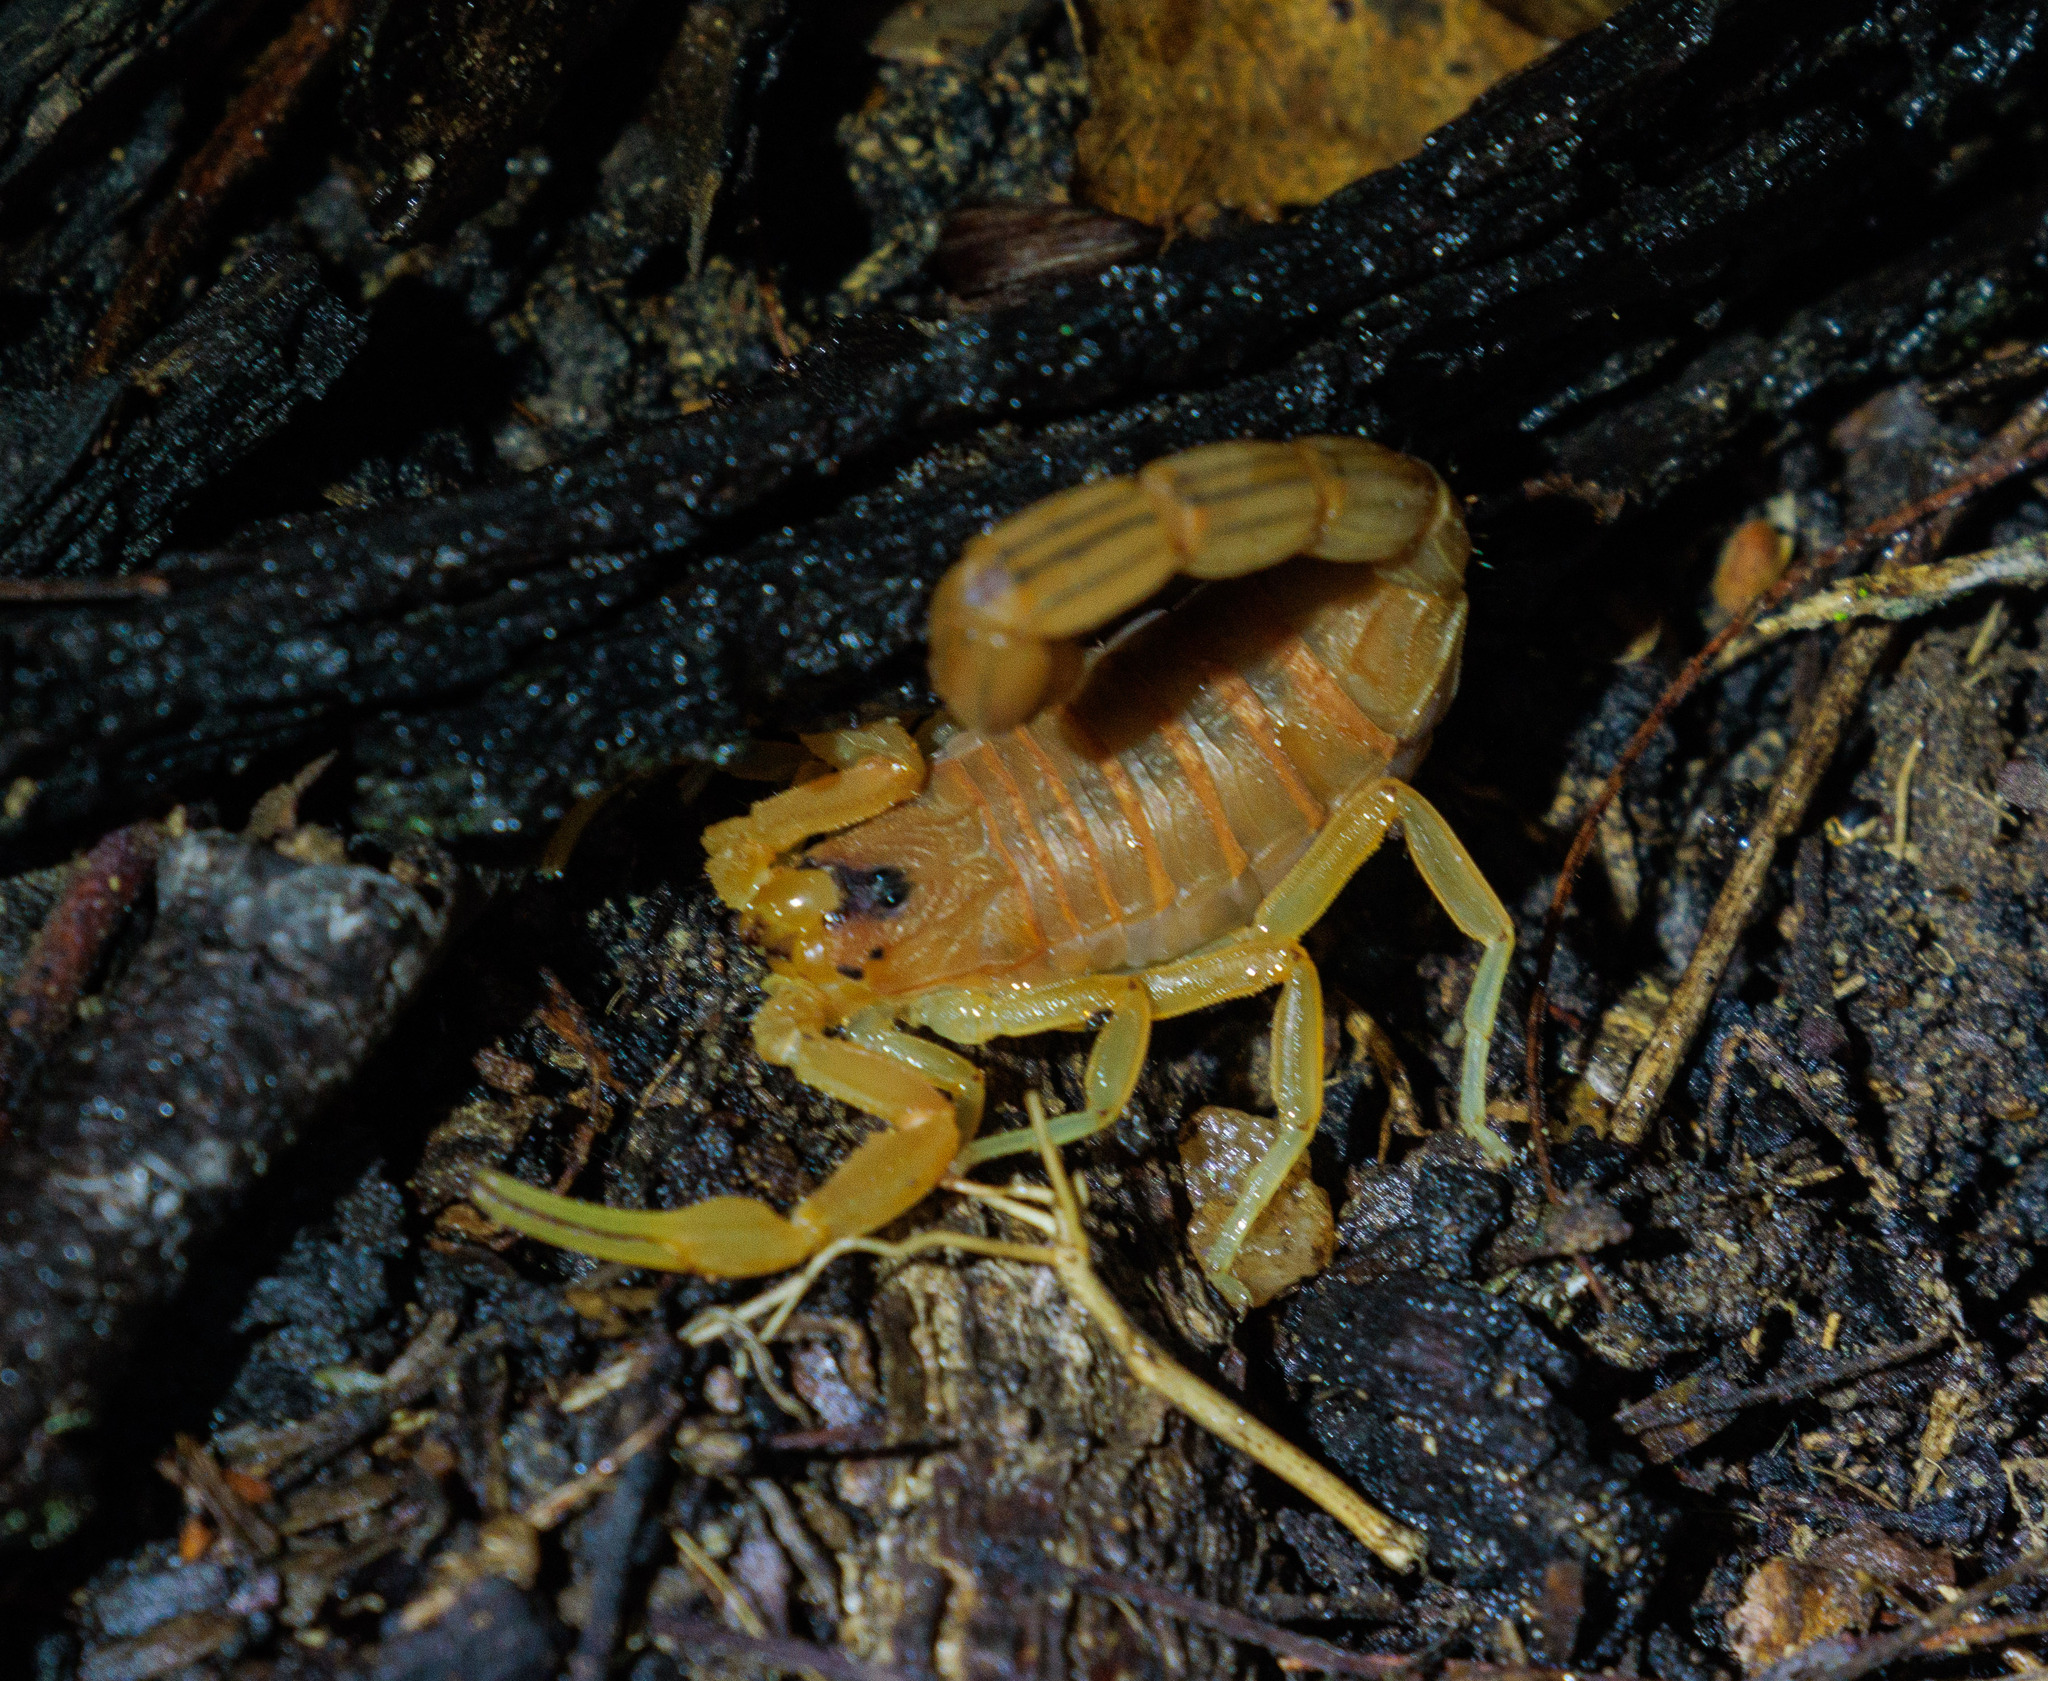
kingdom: Animalia
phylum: Arthropoda
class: Arachnida
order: Scorpiones
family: Buthidae
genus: Jaguajir
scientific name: Jaguajir rochae
